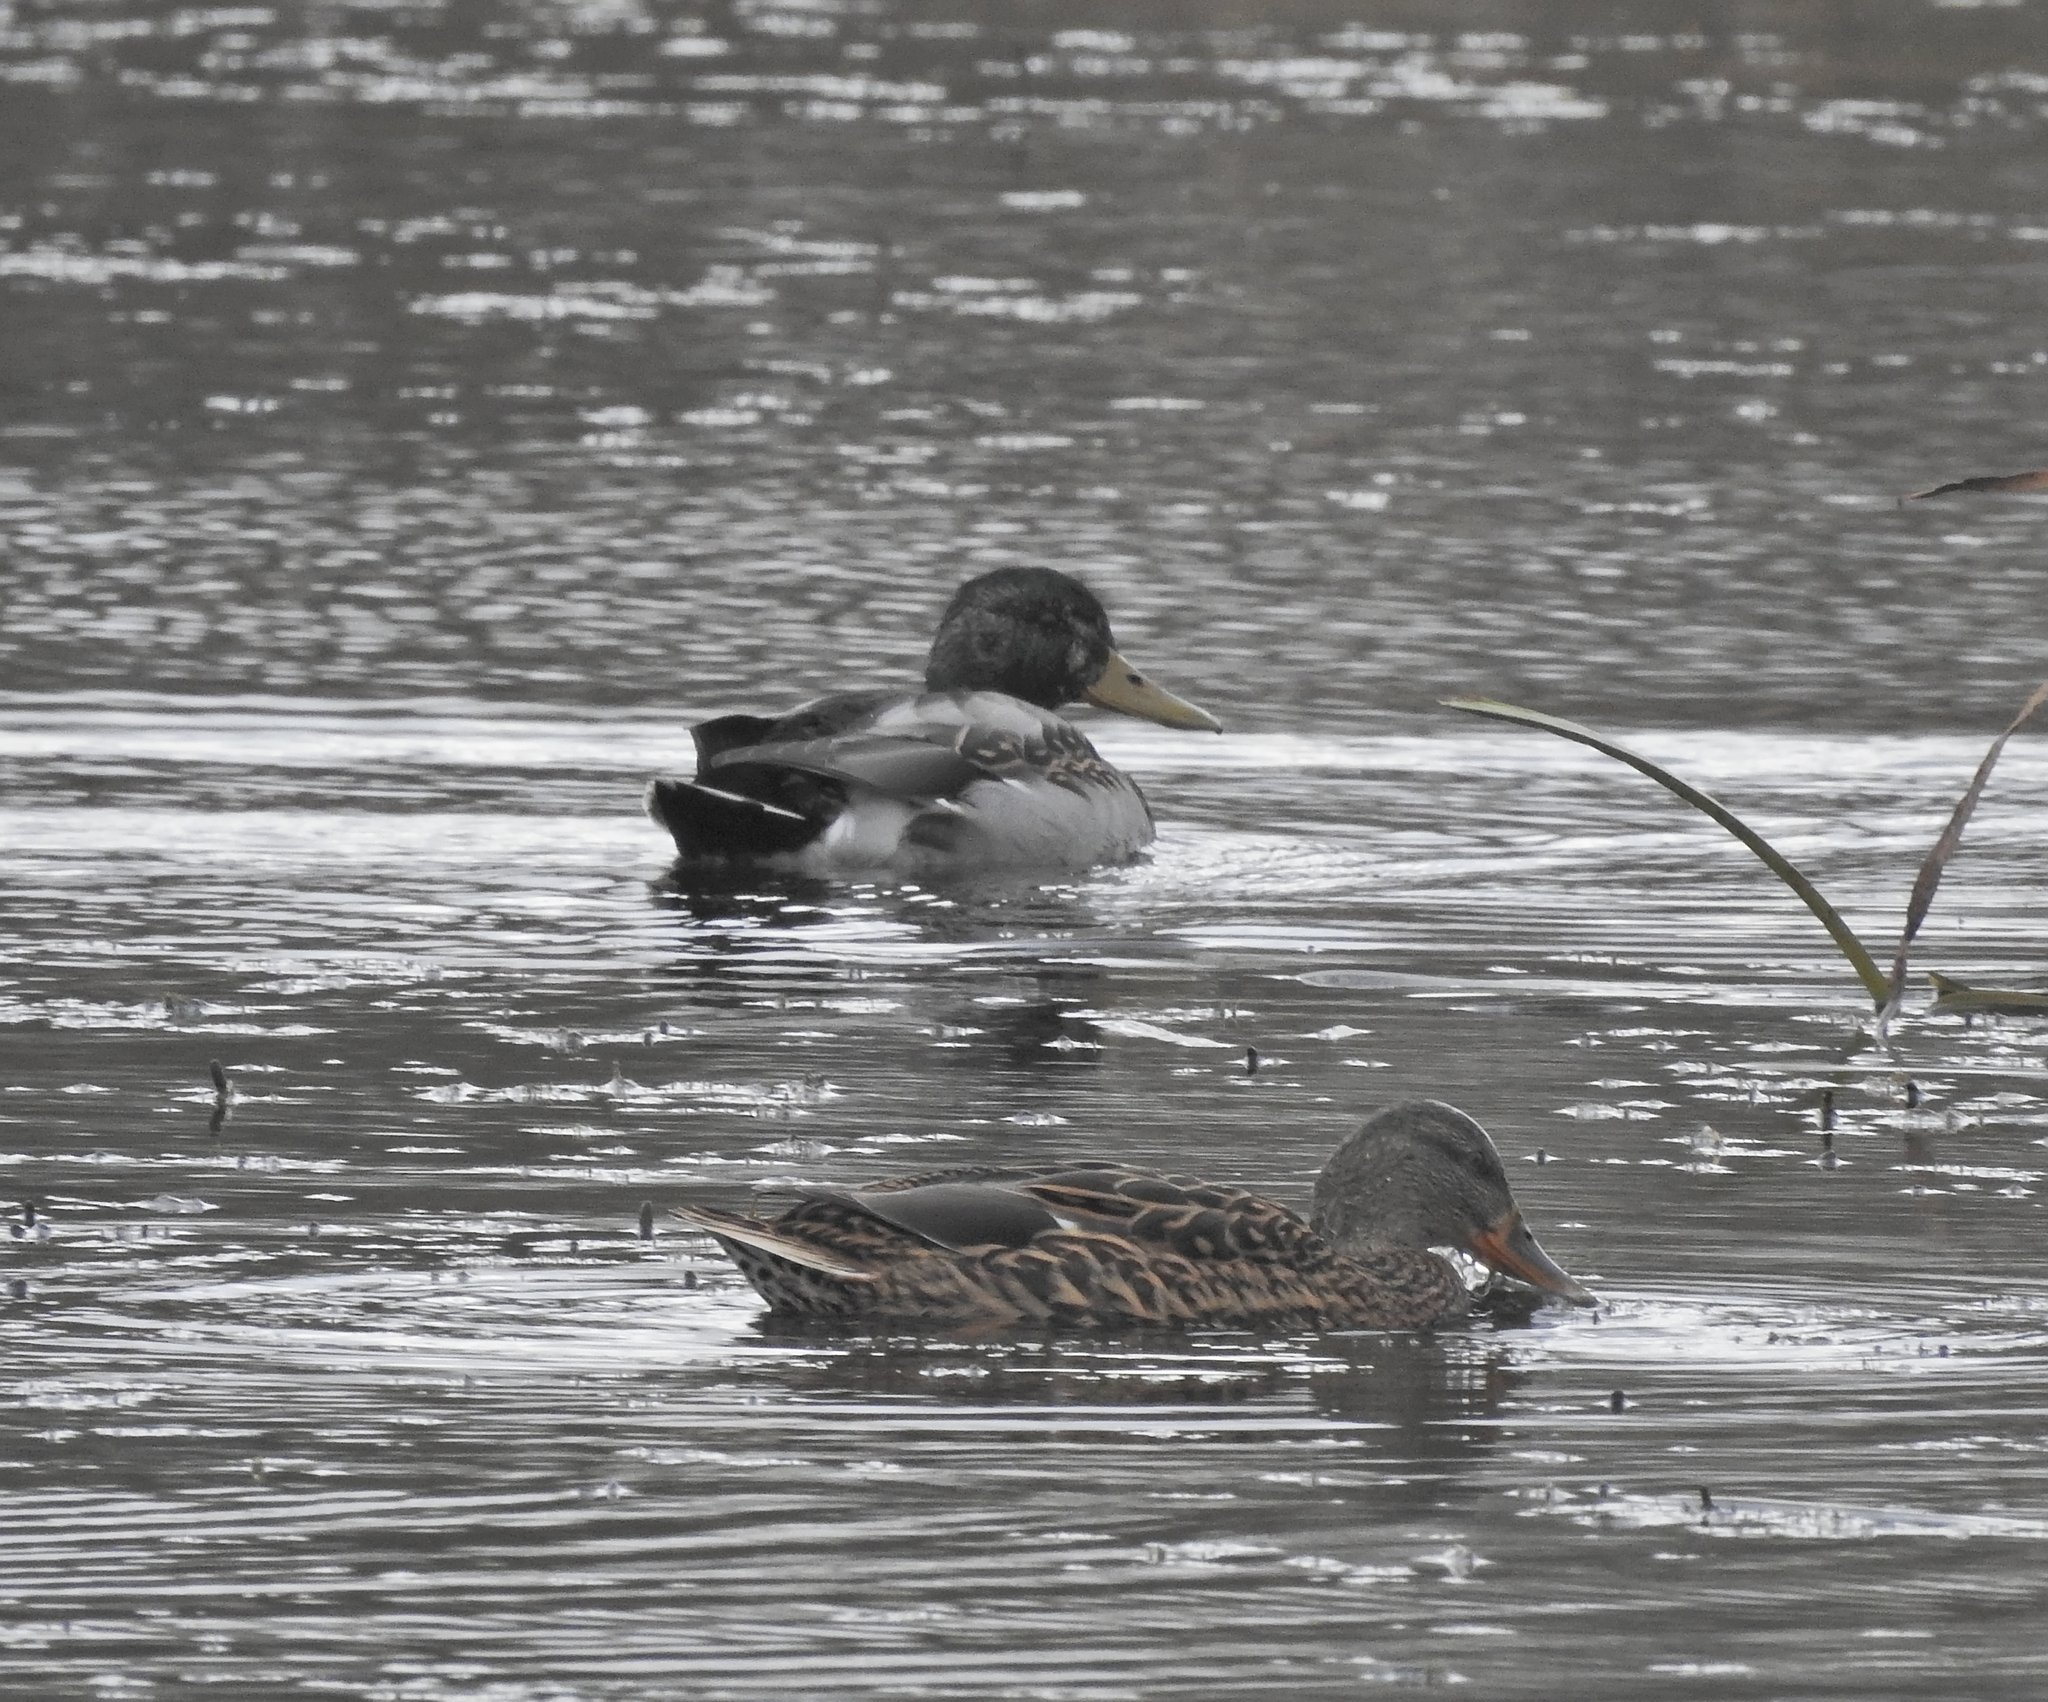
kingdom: Animalia
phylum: Chordata
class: Aves
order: Anseriformes
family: Anatidae
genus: Anas
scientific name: Anas platyrhynchos
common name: Mallard
